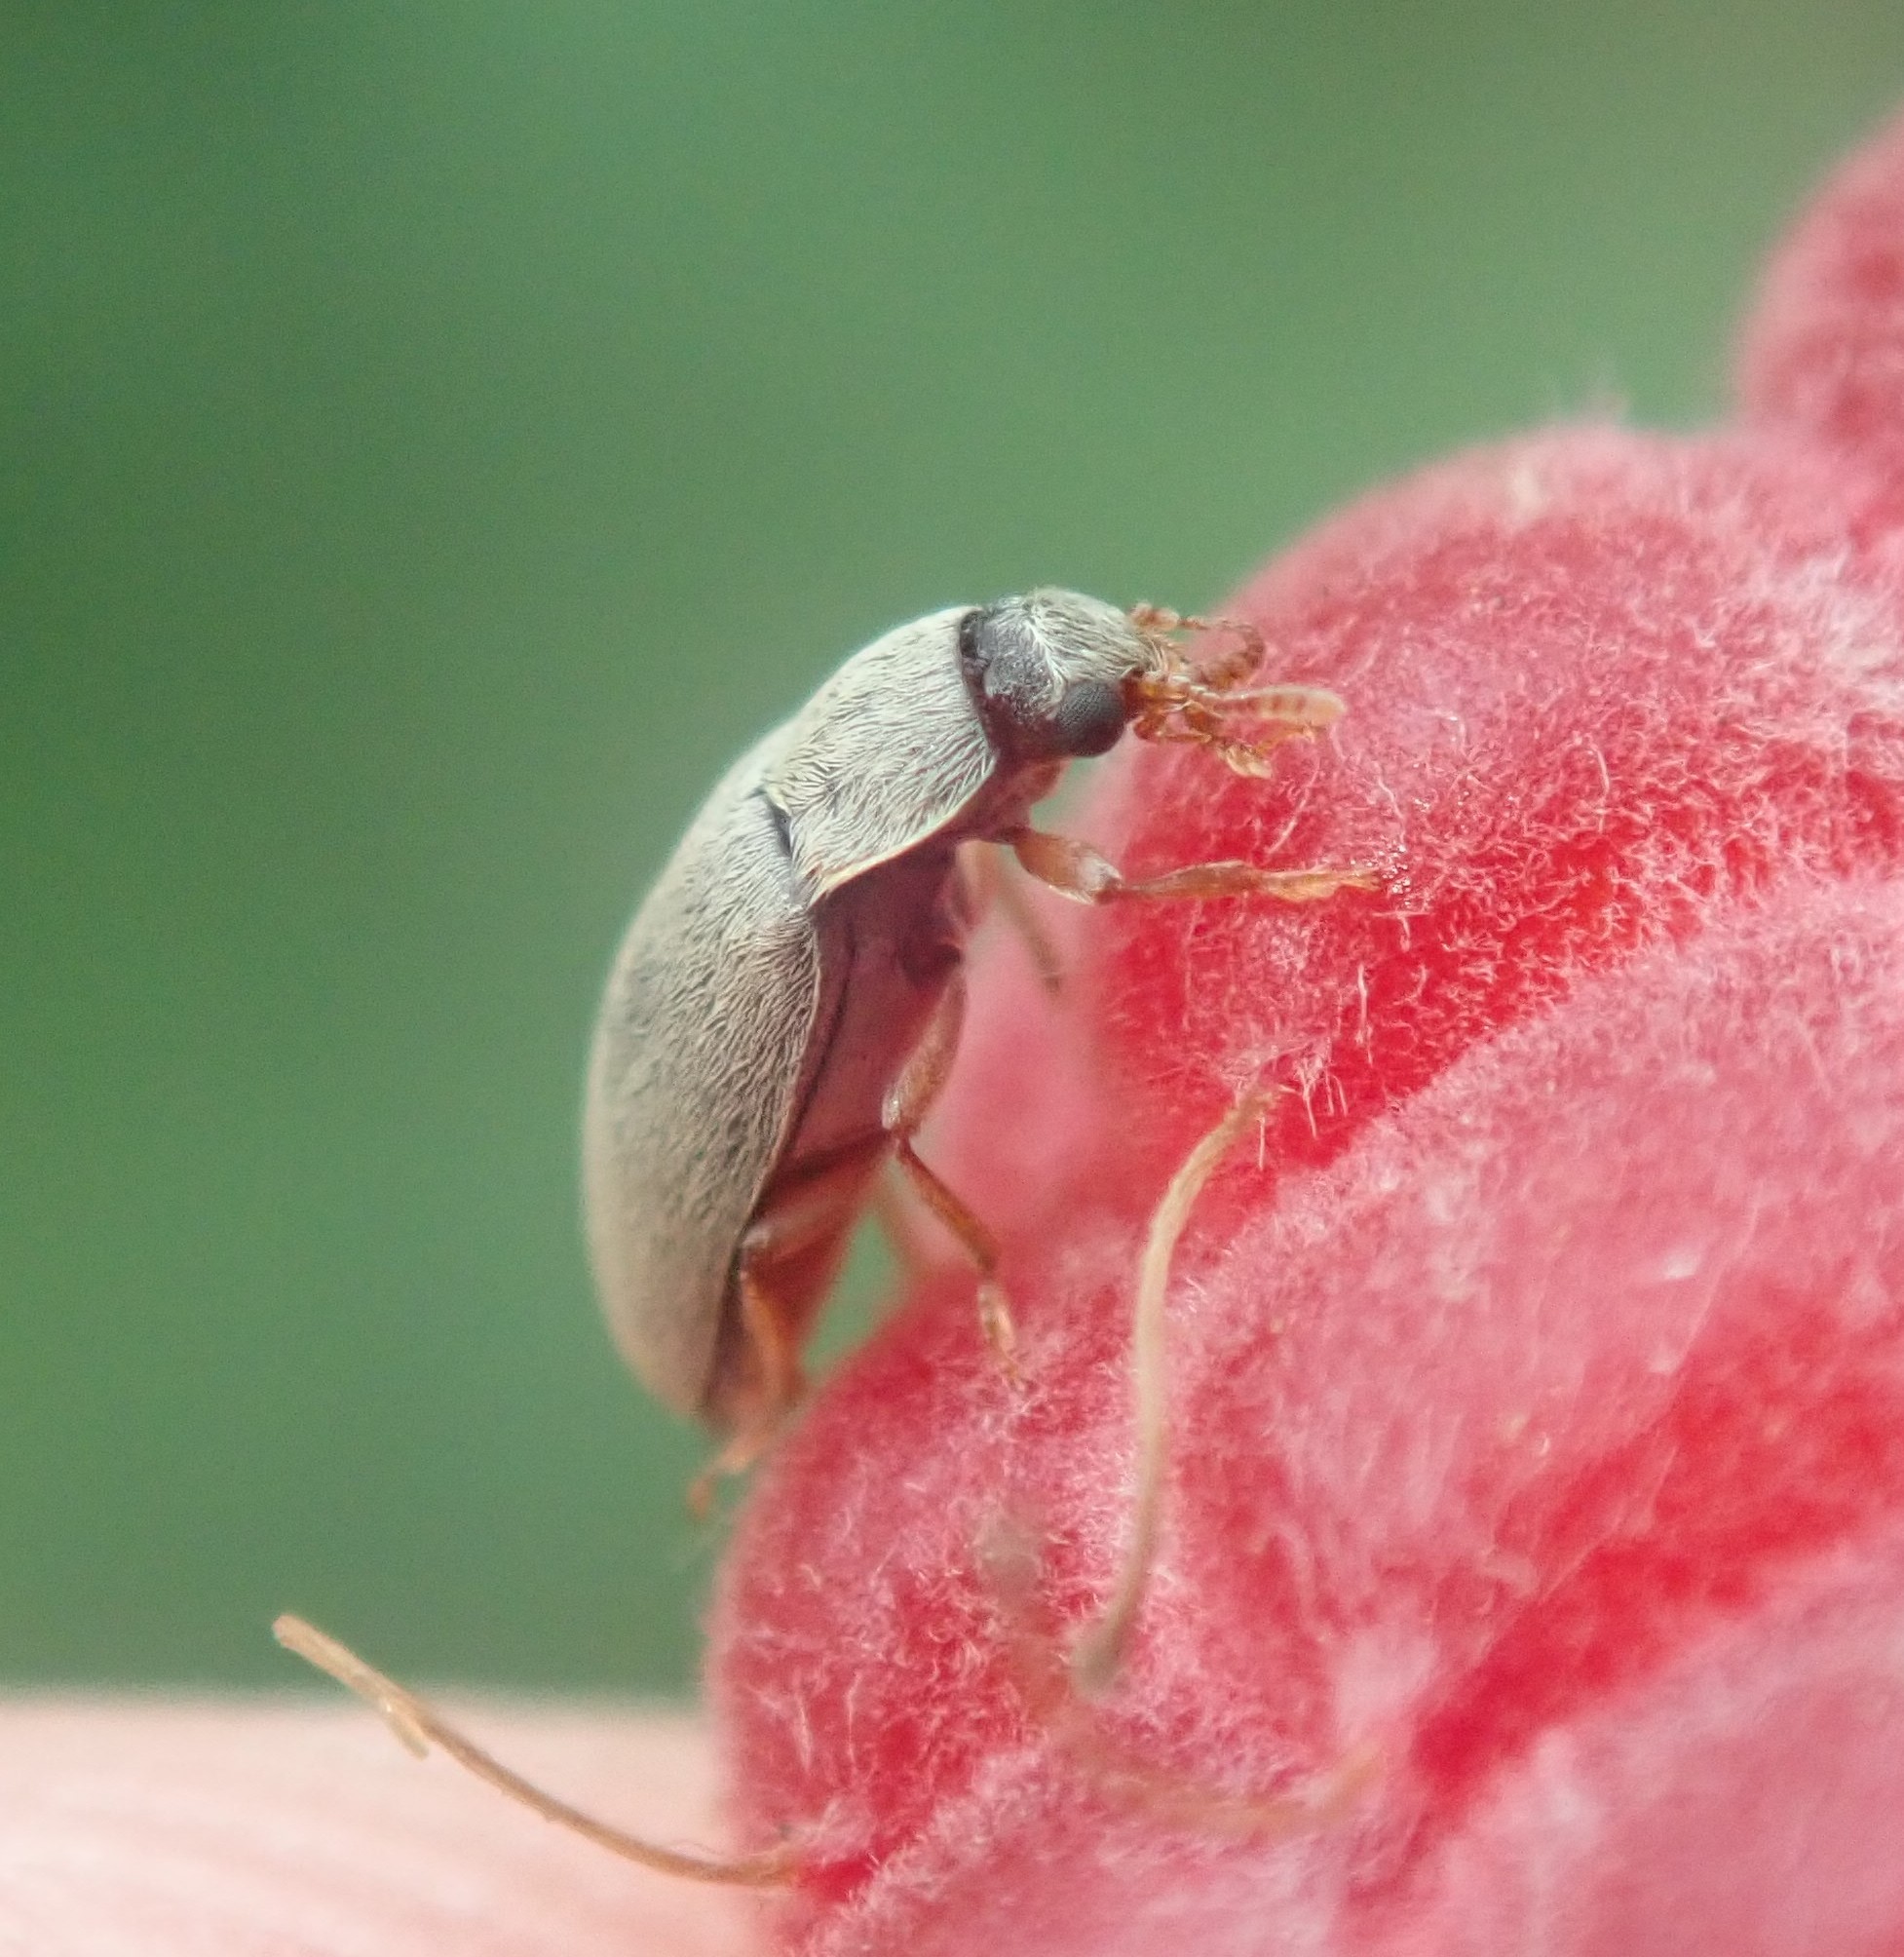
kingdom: Animalia
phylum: Arthropoda
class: Insecta
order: Coleoptera
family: Byturidae
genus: Byturus
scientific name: Byturus tomentosus
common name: Beetle
